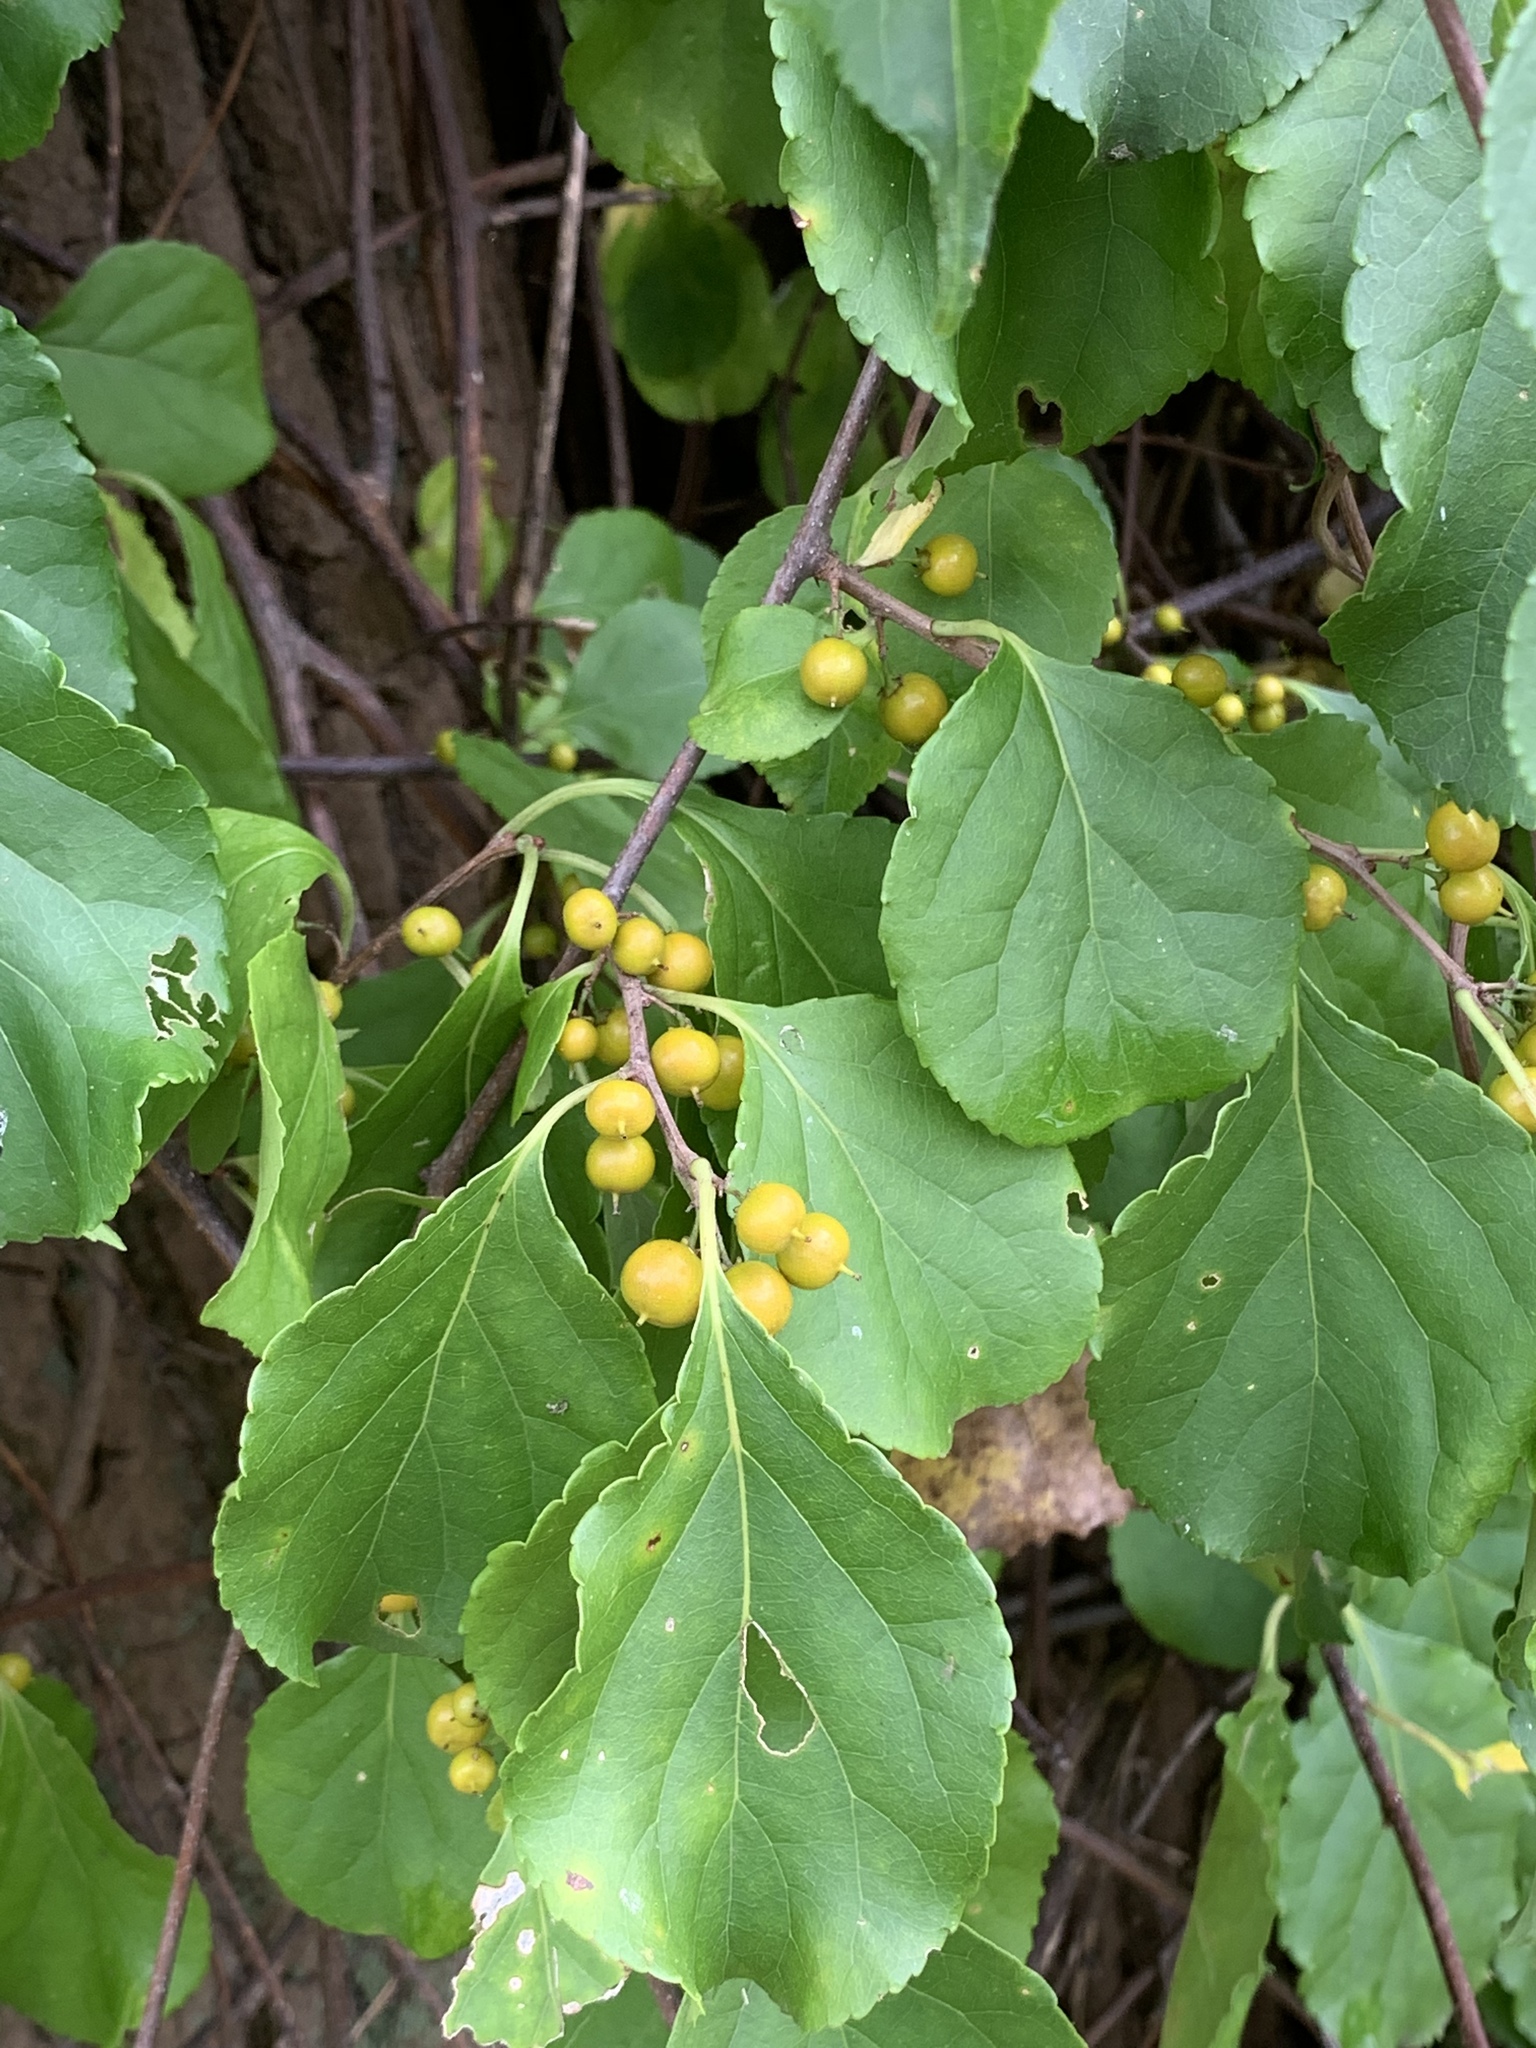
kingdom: Plantae
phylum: Tracheophyta
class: Magnoliopsida
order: Celastrales
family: Celastraceae
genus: Celastrus
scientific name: Celastrus orbiculatus
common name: Oriental bittersweet
